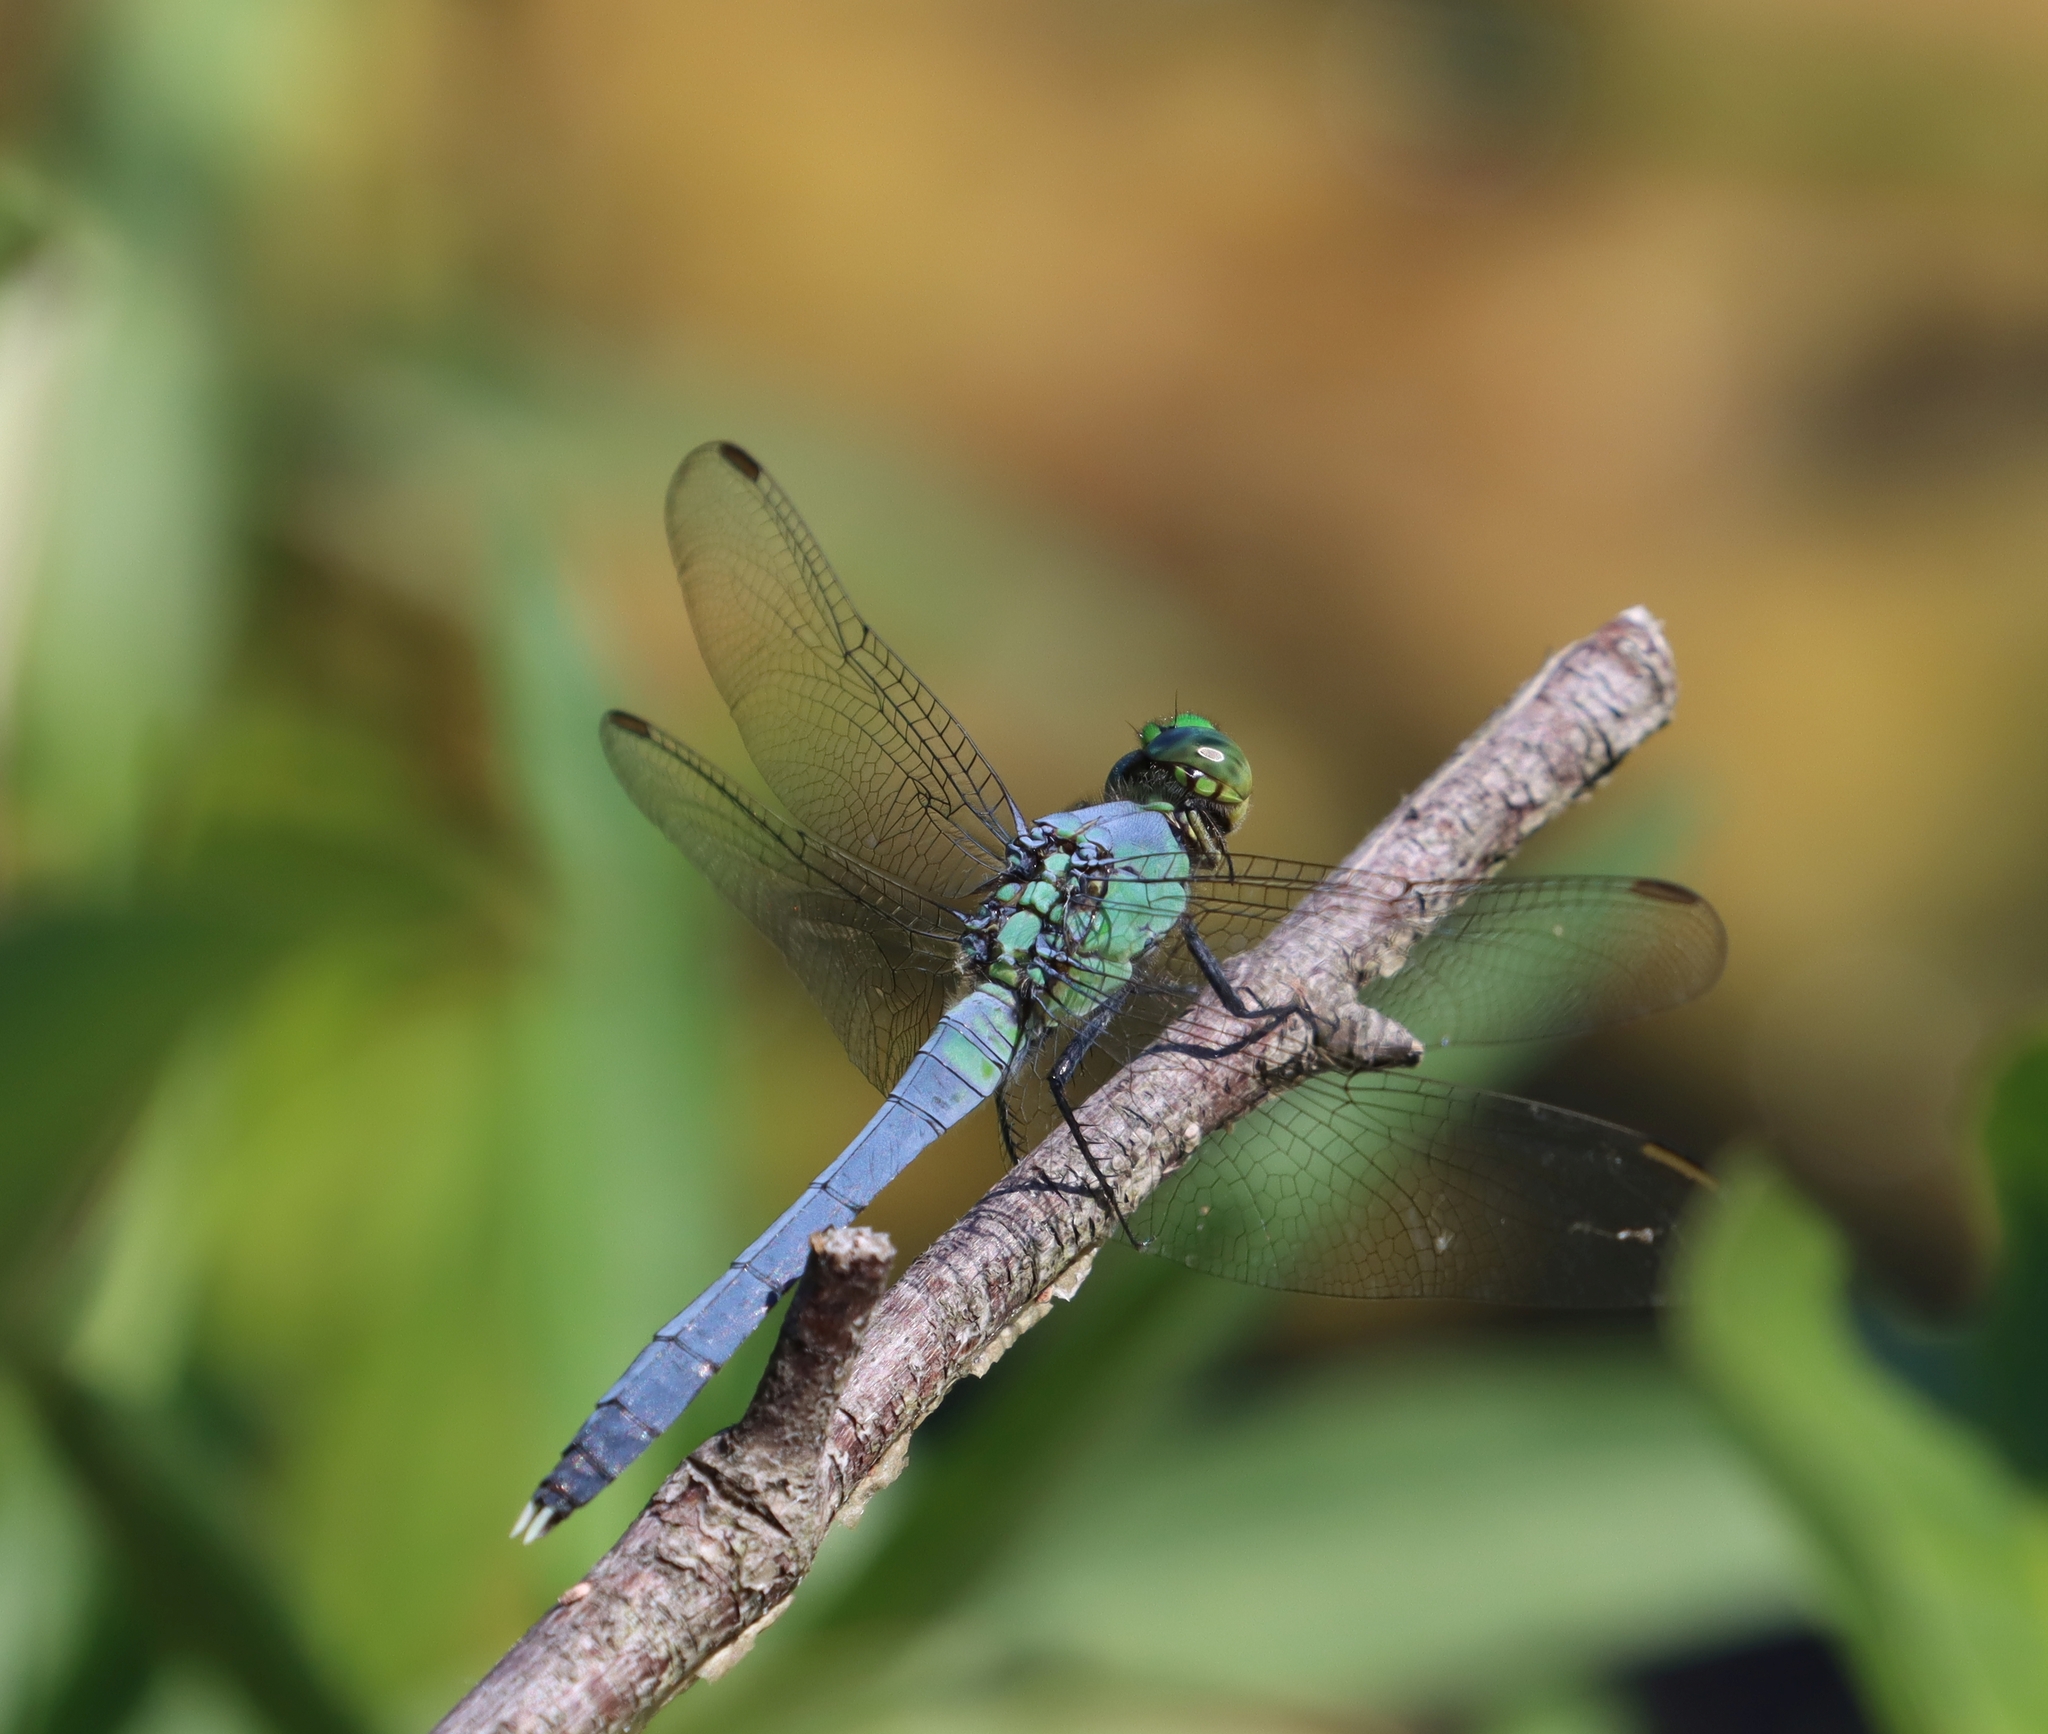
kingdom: Animalia
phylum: Arthropoda
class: Insecta
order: Odonata
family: Libellulidae
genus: Erythemis
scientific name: Erythemis simplicicollis
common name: Eastern pondhawk
